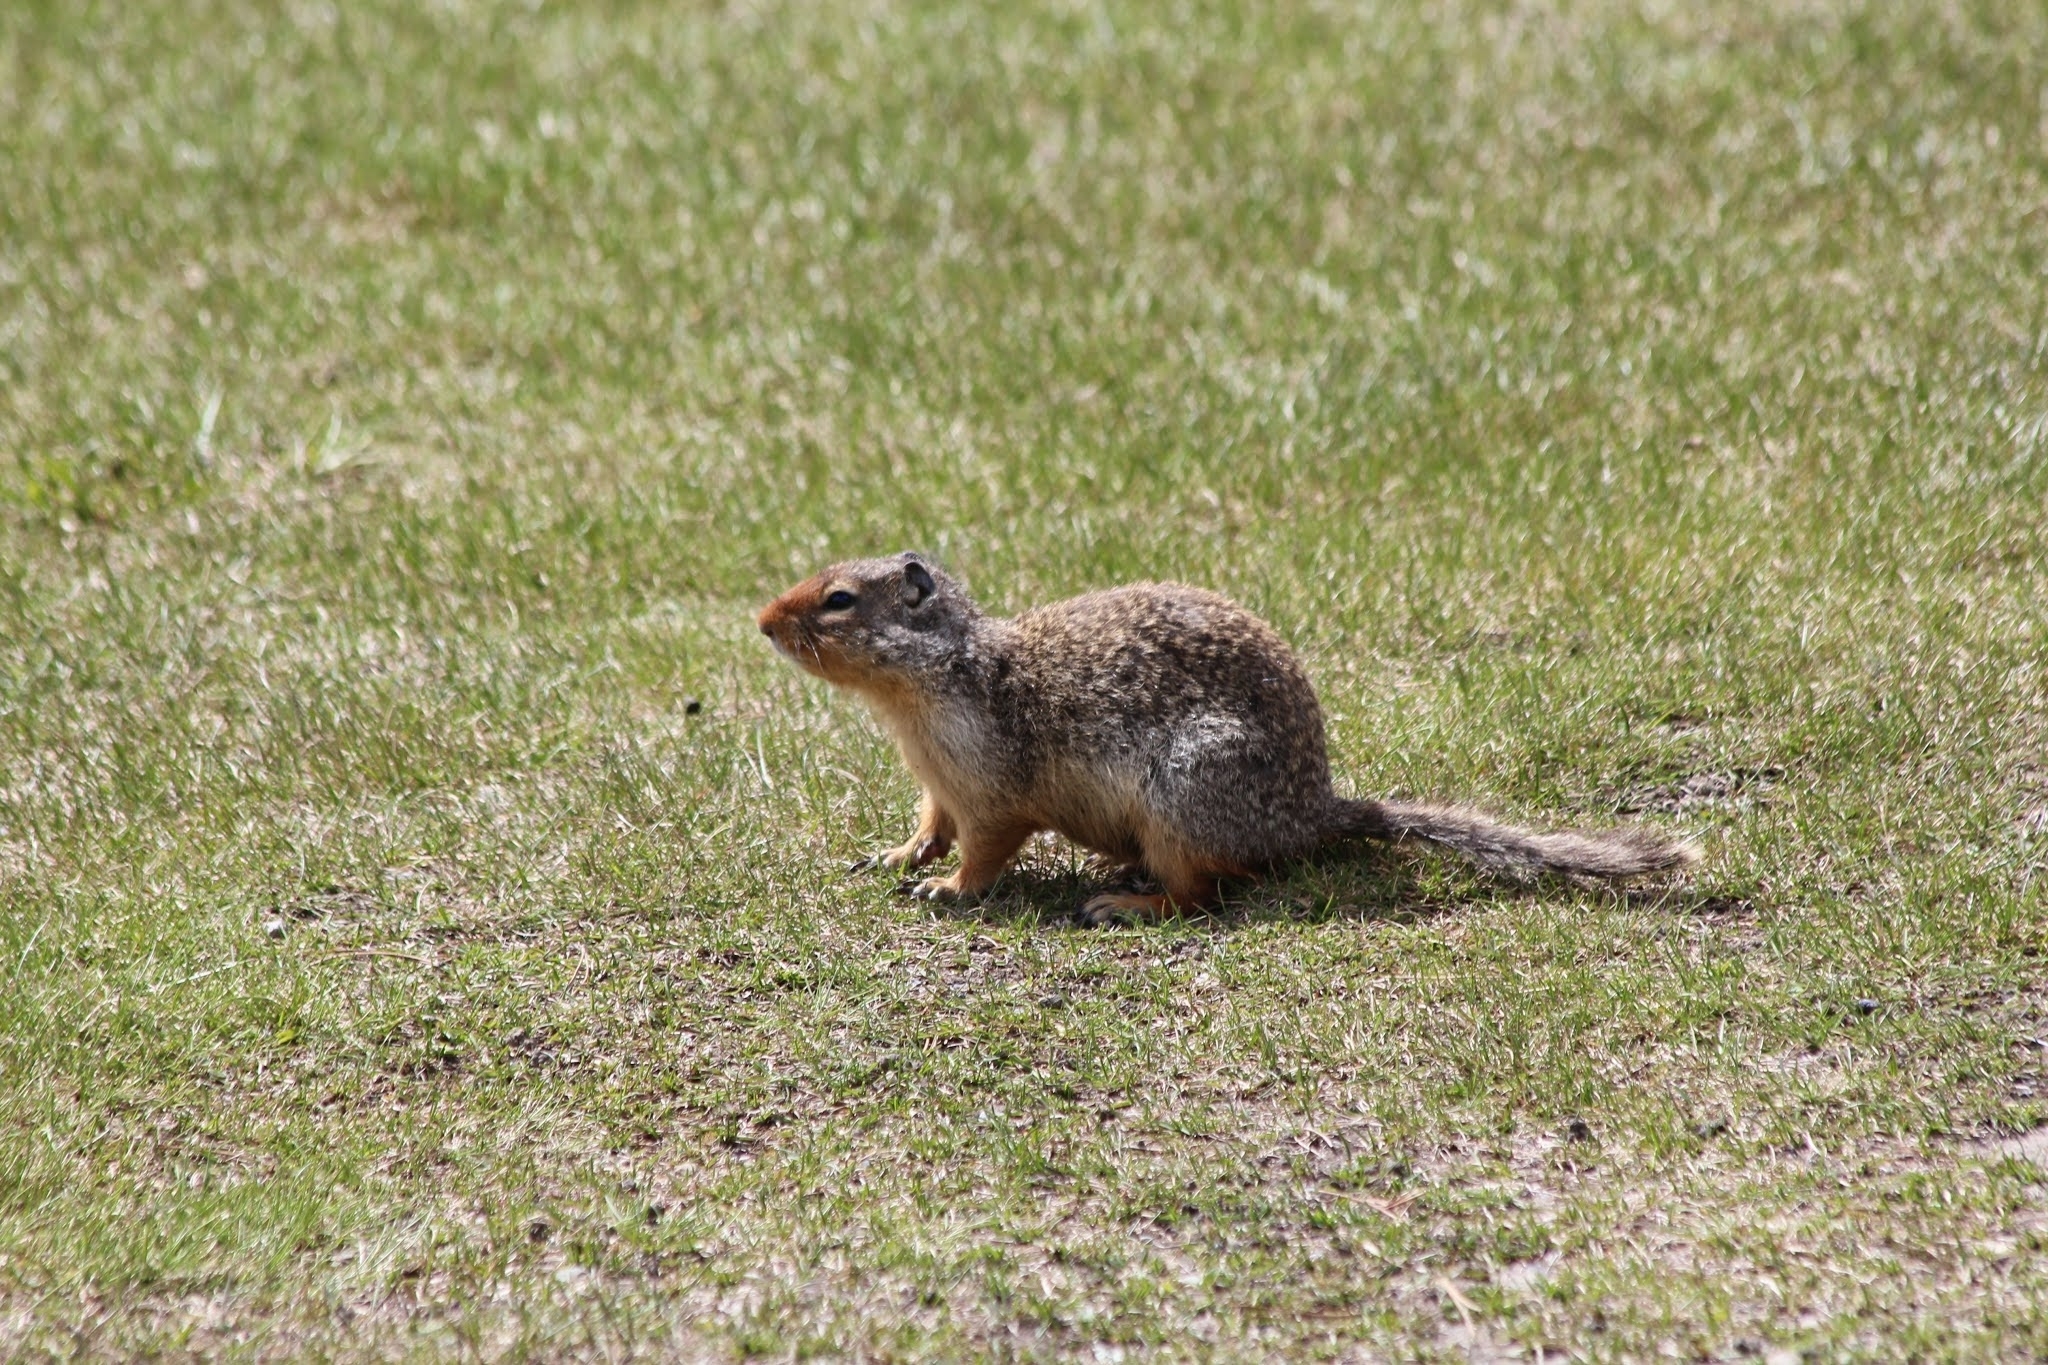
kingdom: Animalia
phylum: Chordata
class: Mammalia
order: Rodentia
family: Sciuridae
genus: Urocitellus
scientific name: Urocitellus columbianus
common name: Columbian ground squirrel
